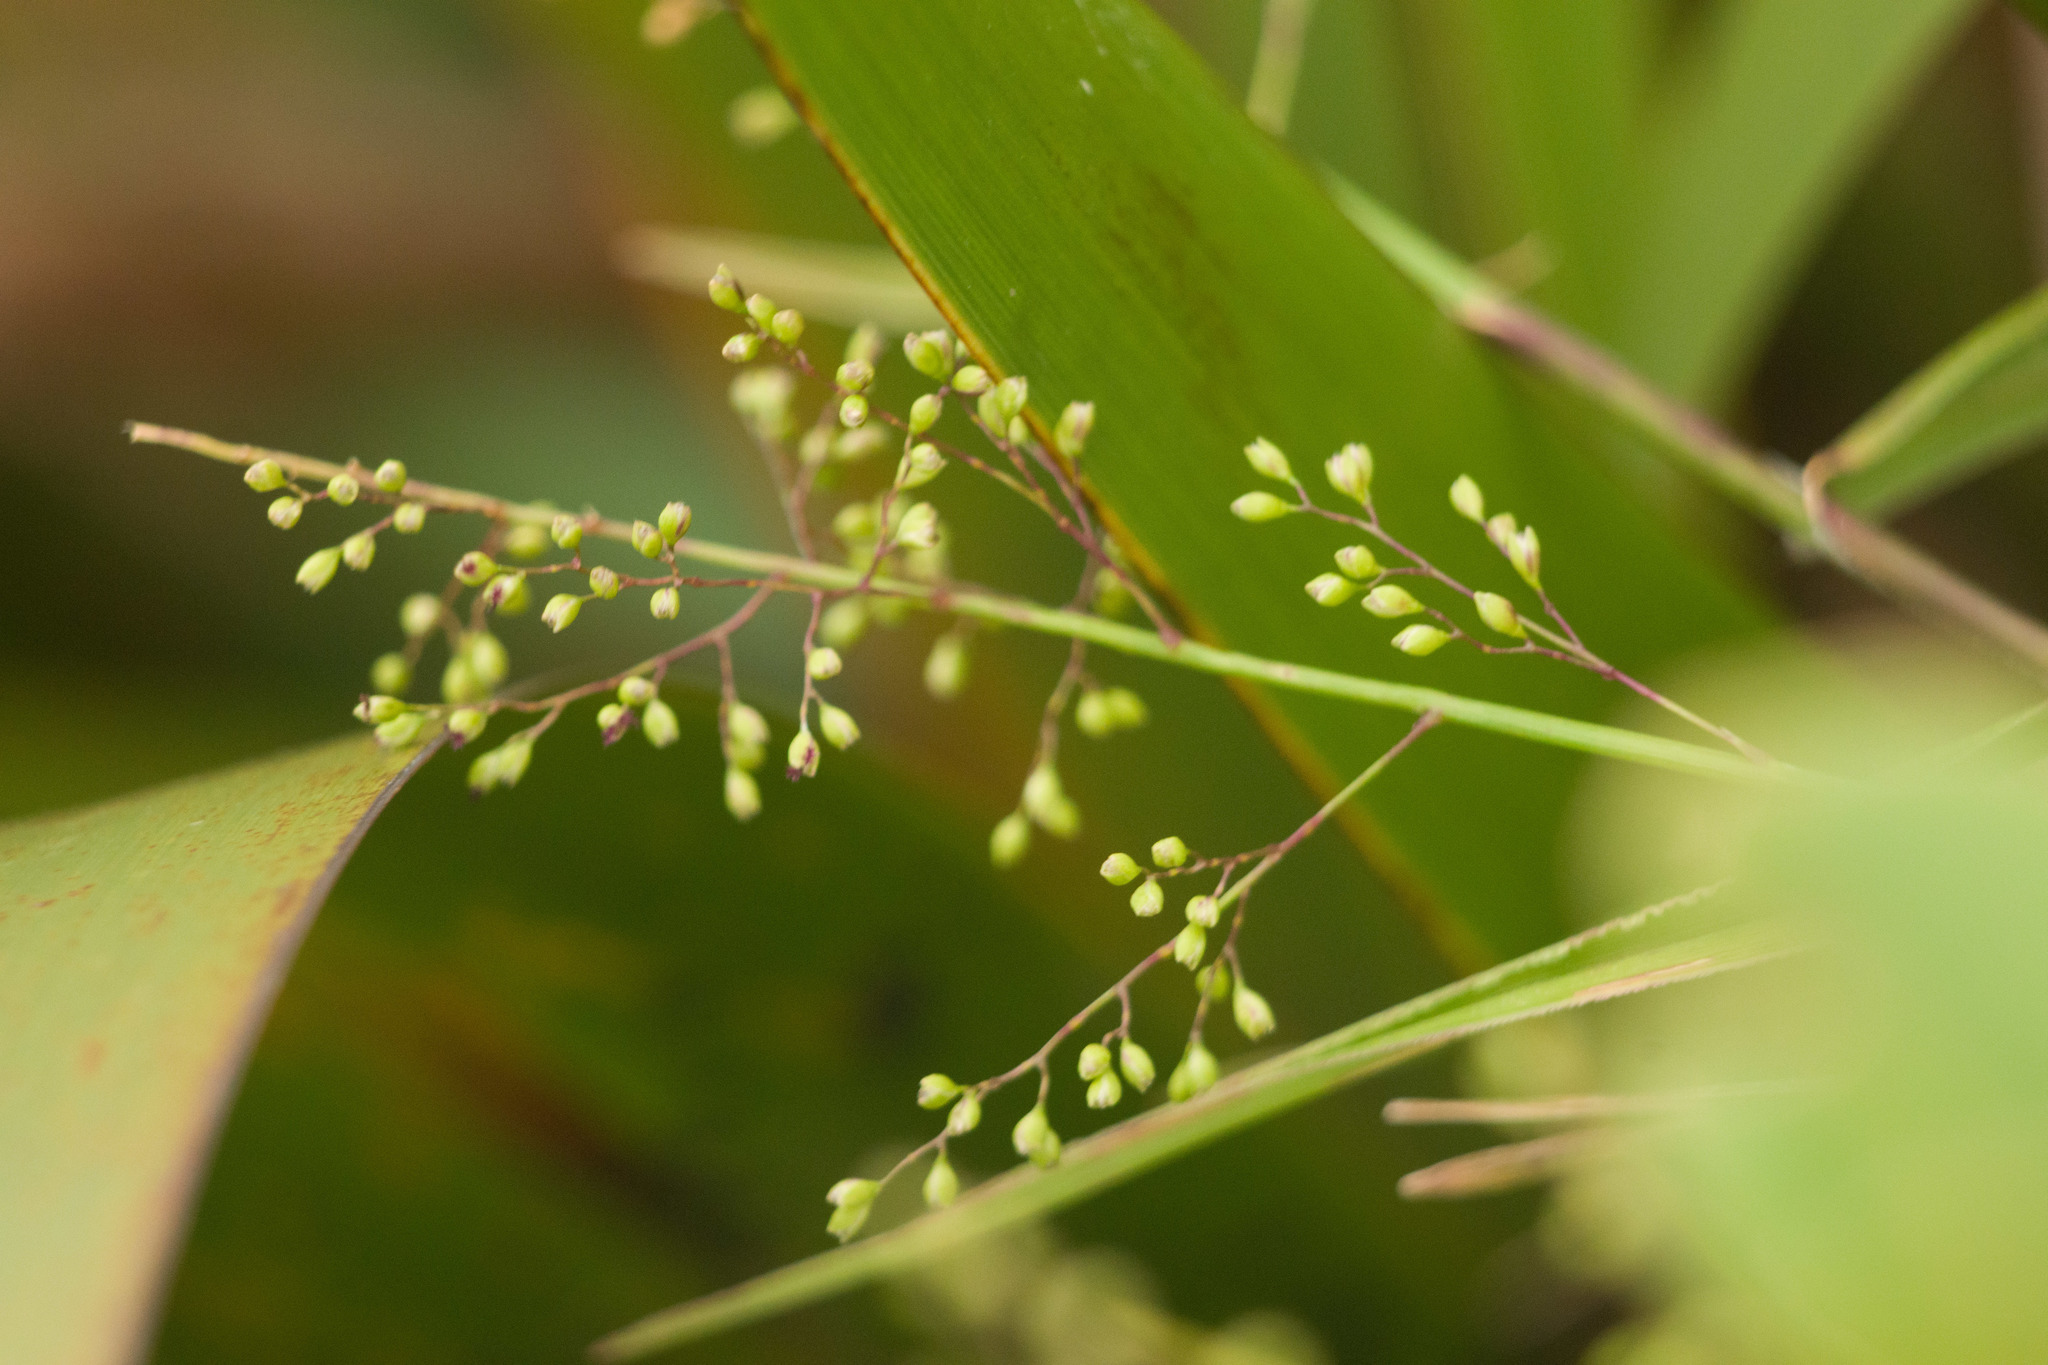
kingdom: Plantae
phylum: Tracheophyta
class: Liliopsida
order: Poales
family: Poaceae
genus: Isachne
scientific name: Isachne distichophylla
